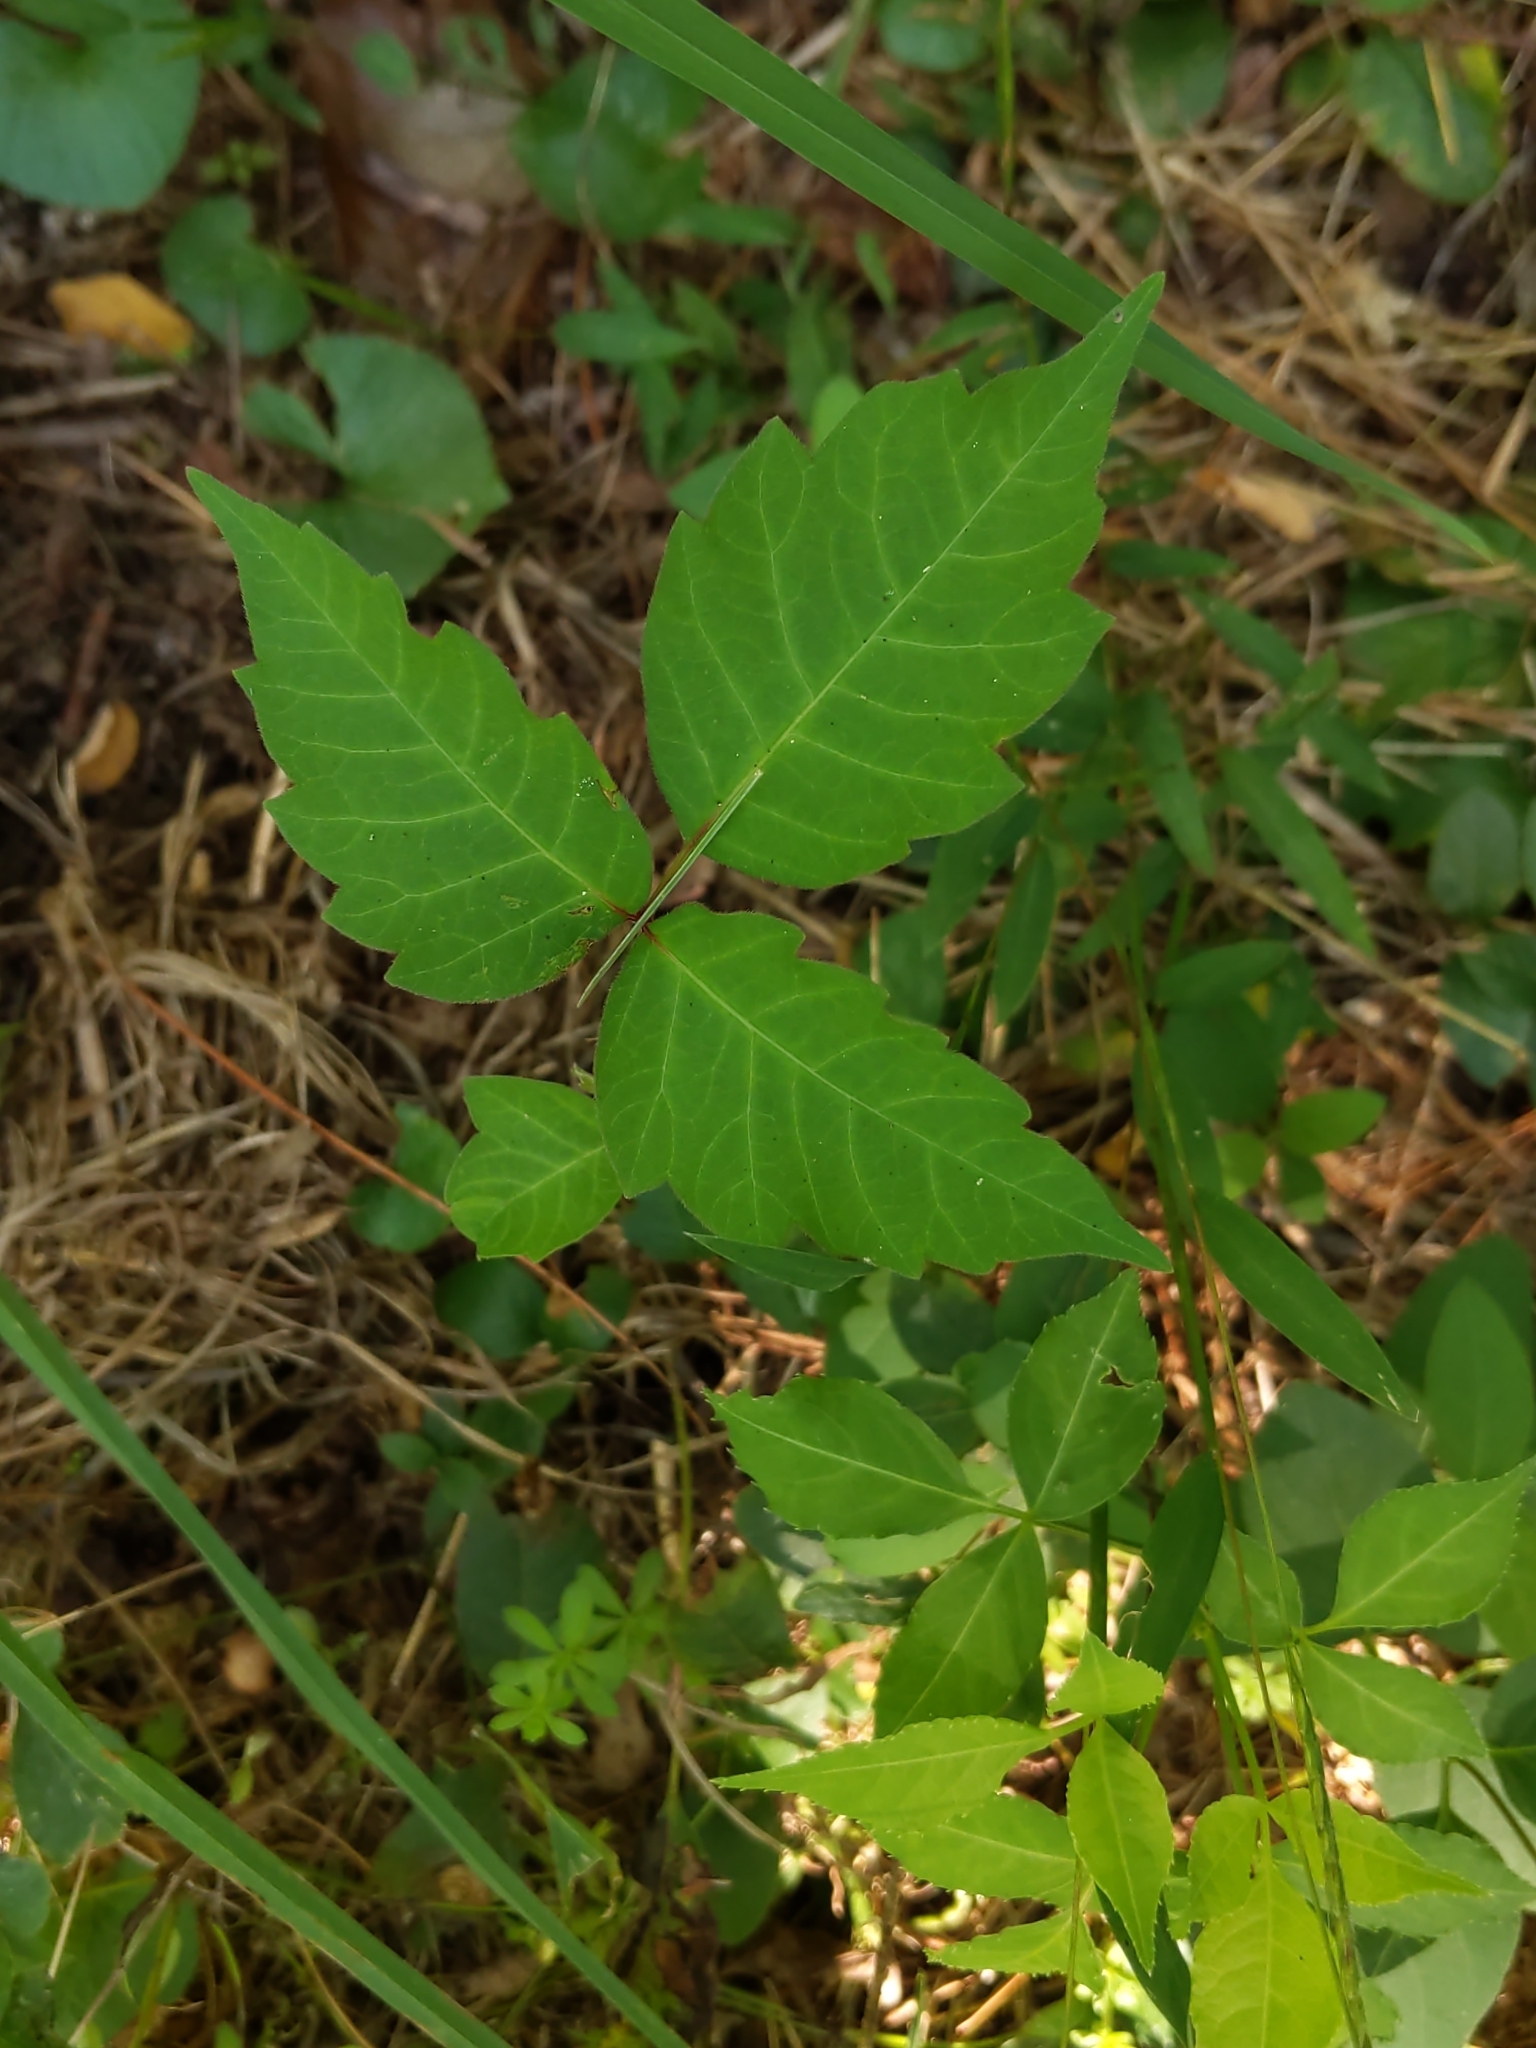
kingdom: Plantae
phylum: Tracheophyta
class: Magnoliopsida
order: Sapindales
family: Anacardiaceae
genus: Toxicodendron
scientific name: Toxicodendron radicans
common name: Poison ivy
